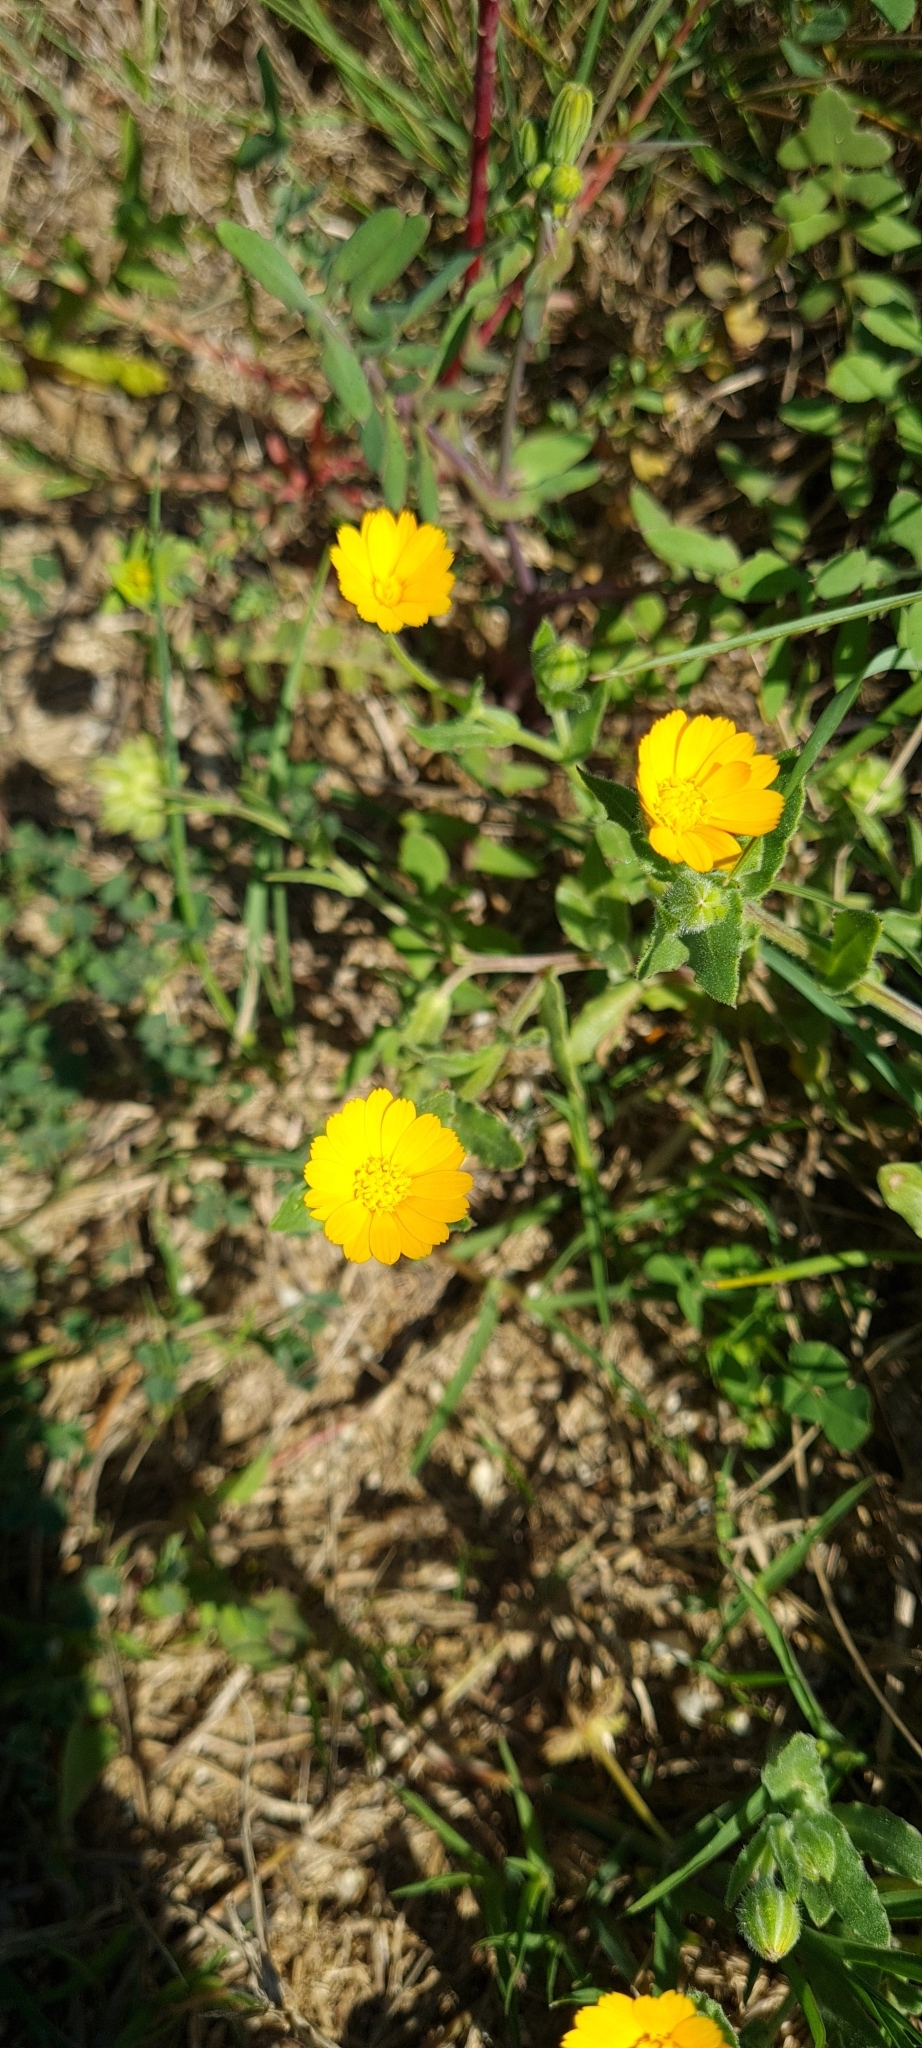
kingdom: Plantae
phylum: Tracheophyta
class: Magnoliopsida
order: Asterales
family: Asteraceae
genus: Calendula
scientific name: Calendula arvensis
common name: Field marigold
